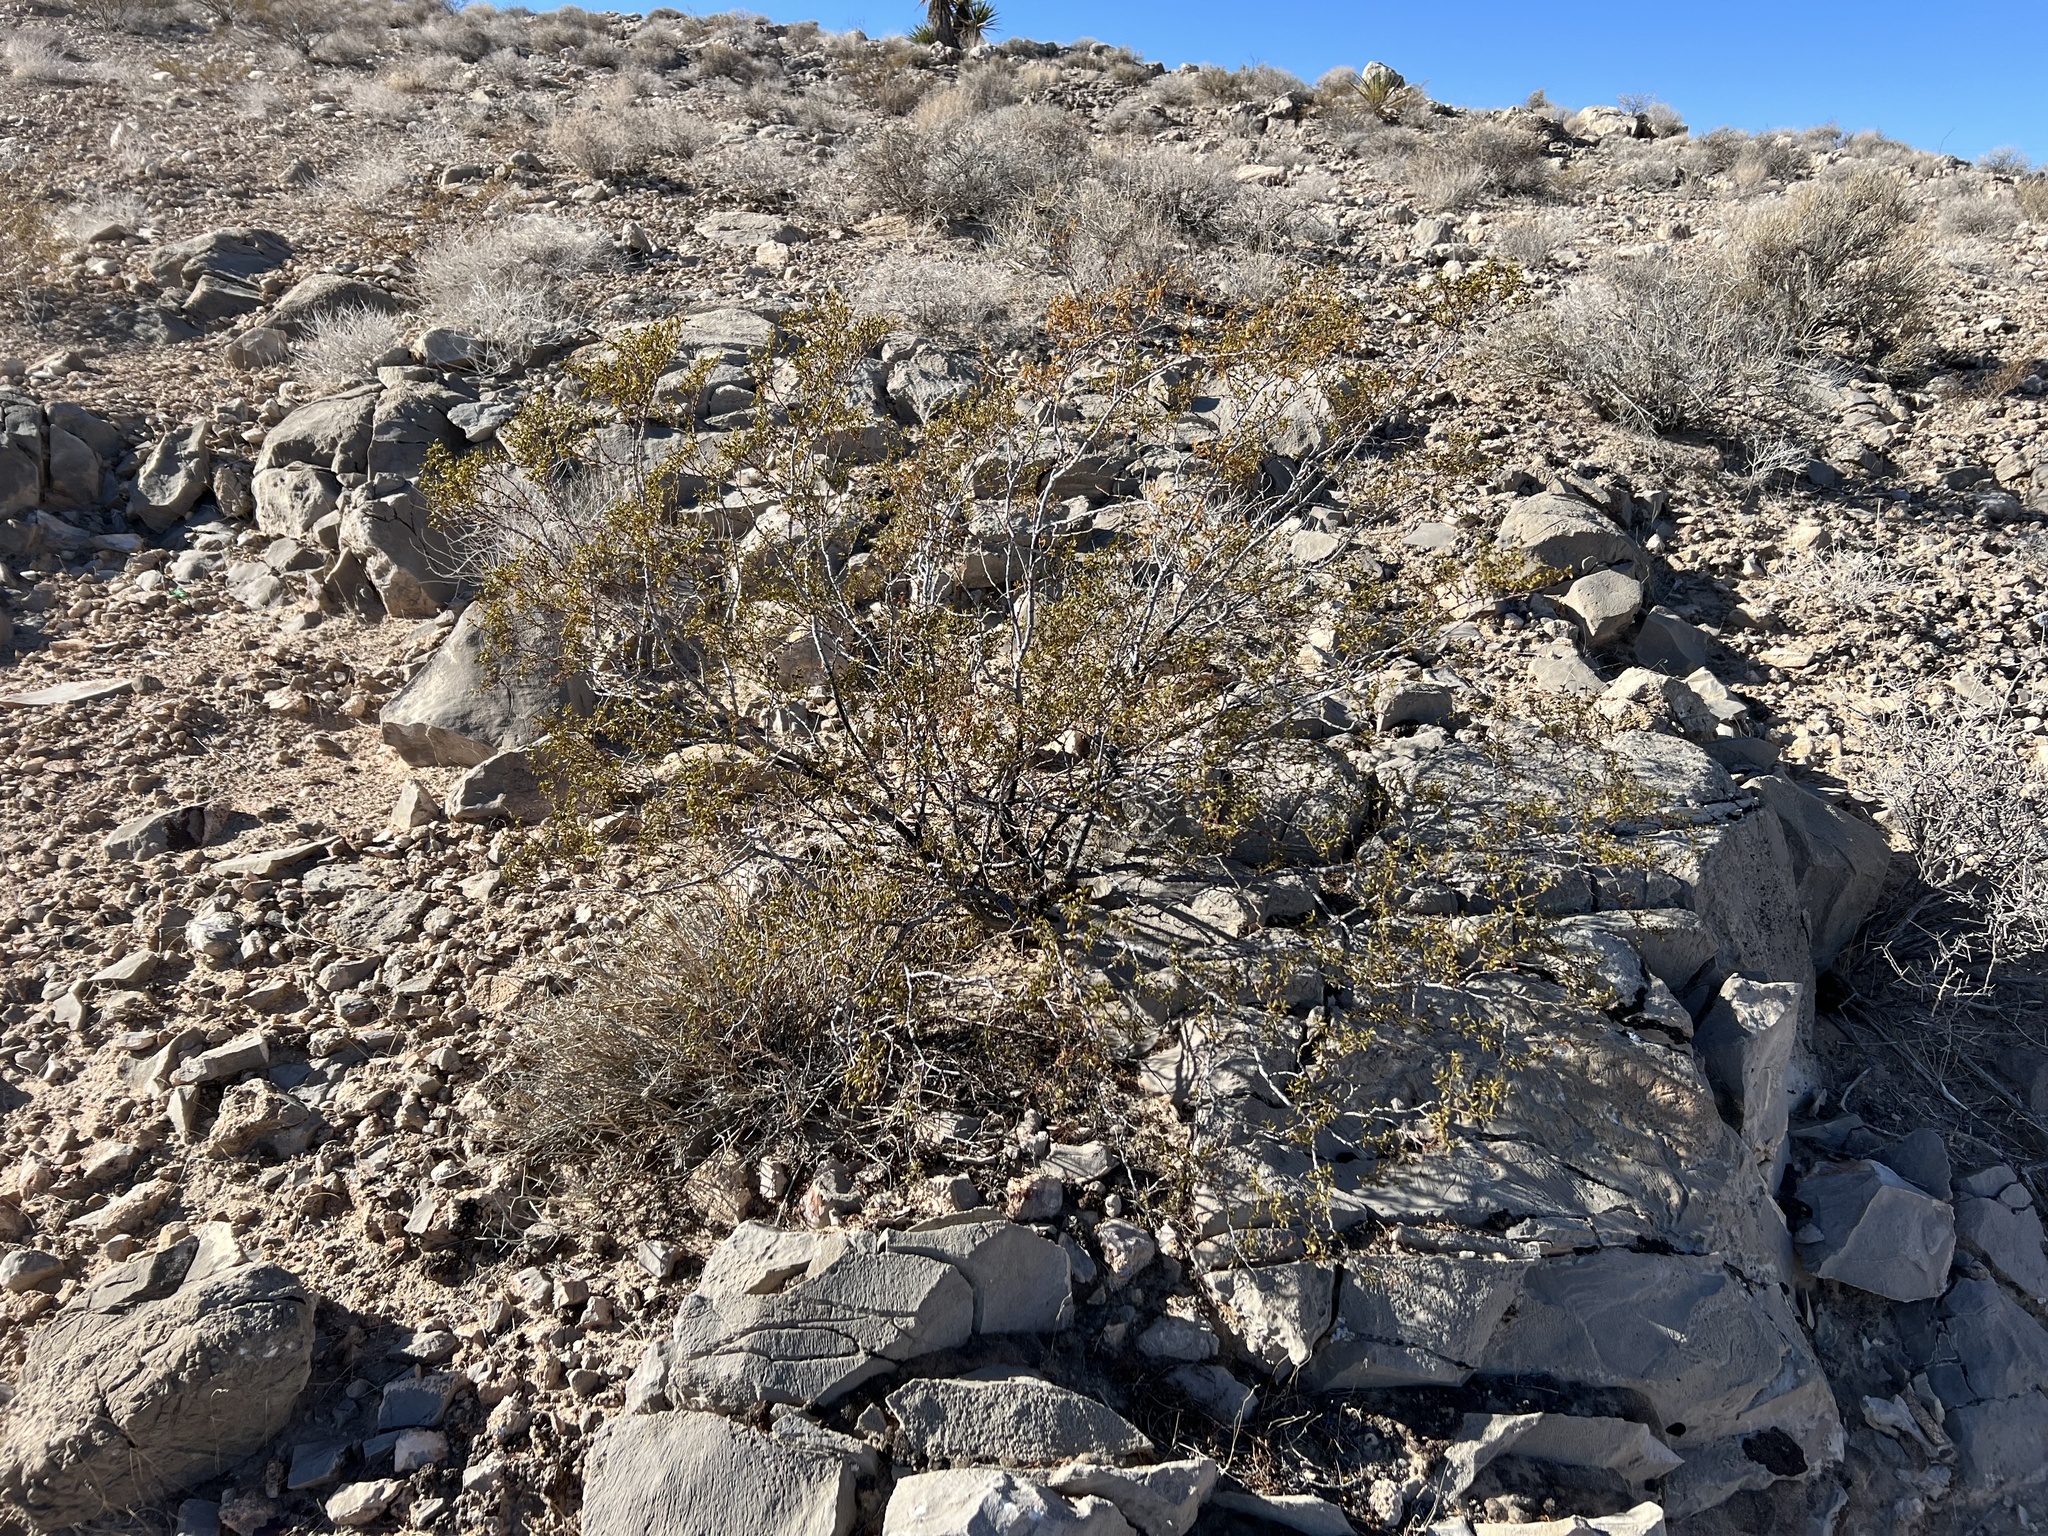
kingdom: Plantae
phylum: Tracheophyta
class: Magnoliopsida
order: Zygophyllales
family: Zygophyllaceae
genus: Larrea
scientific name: Larrea tridentata
